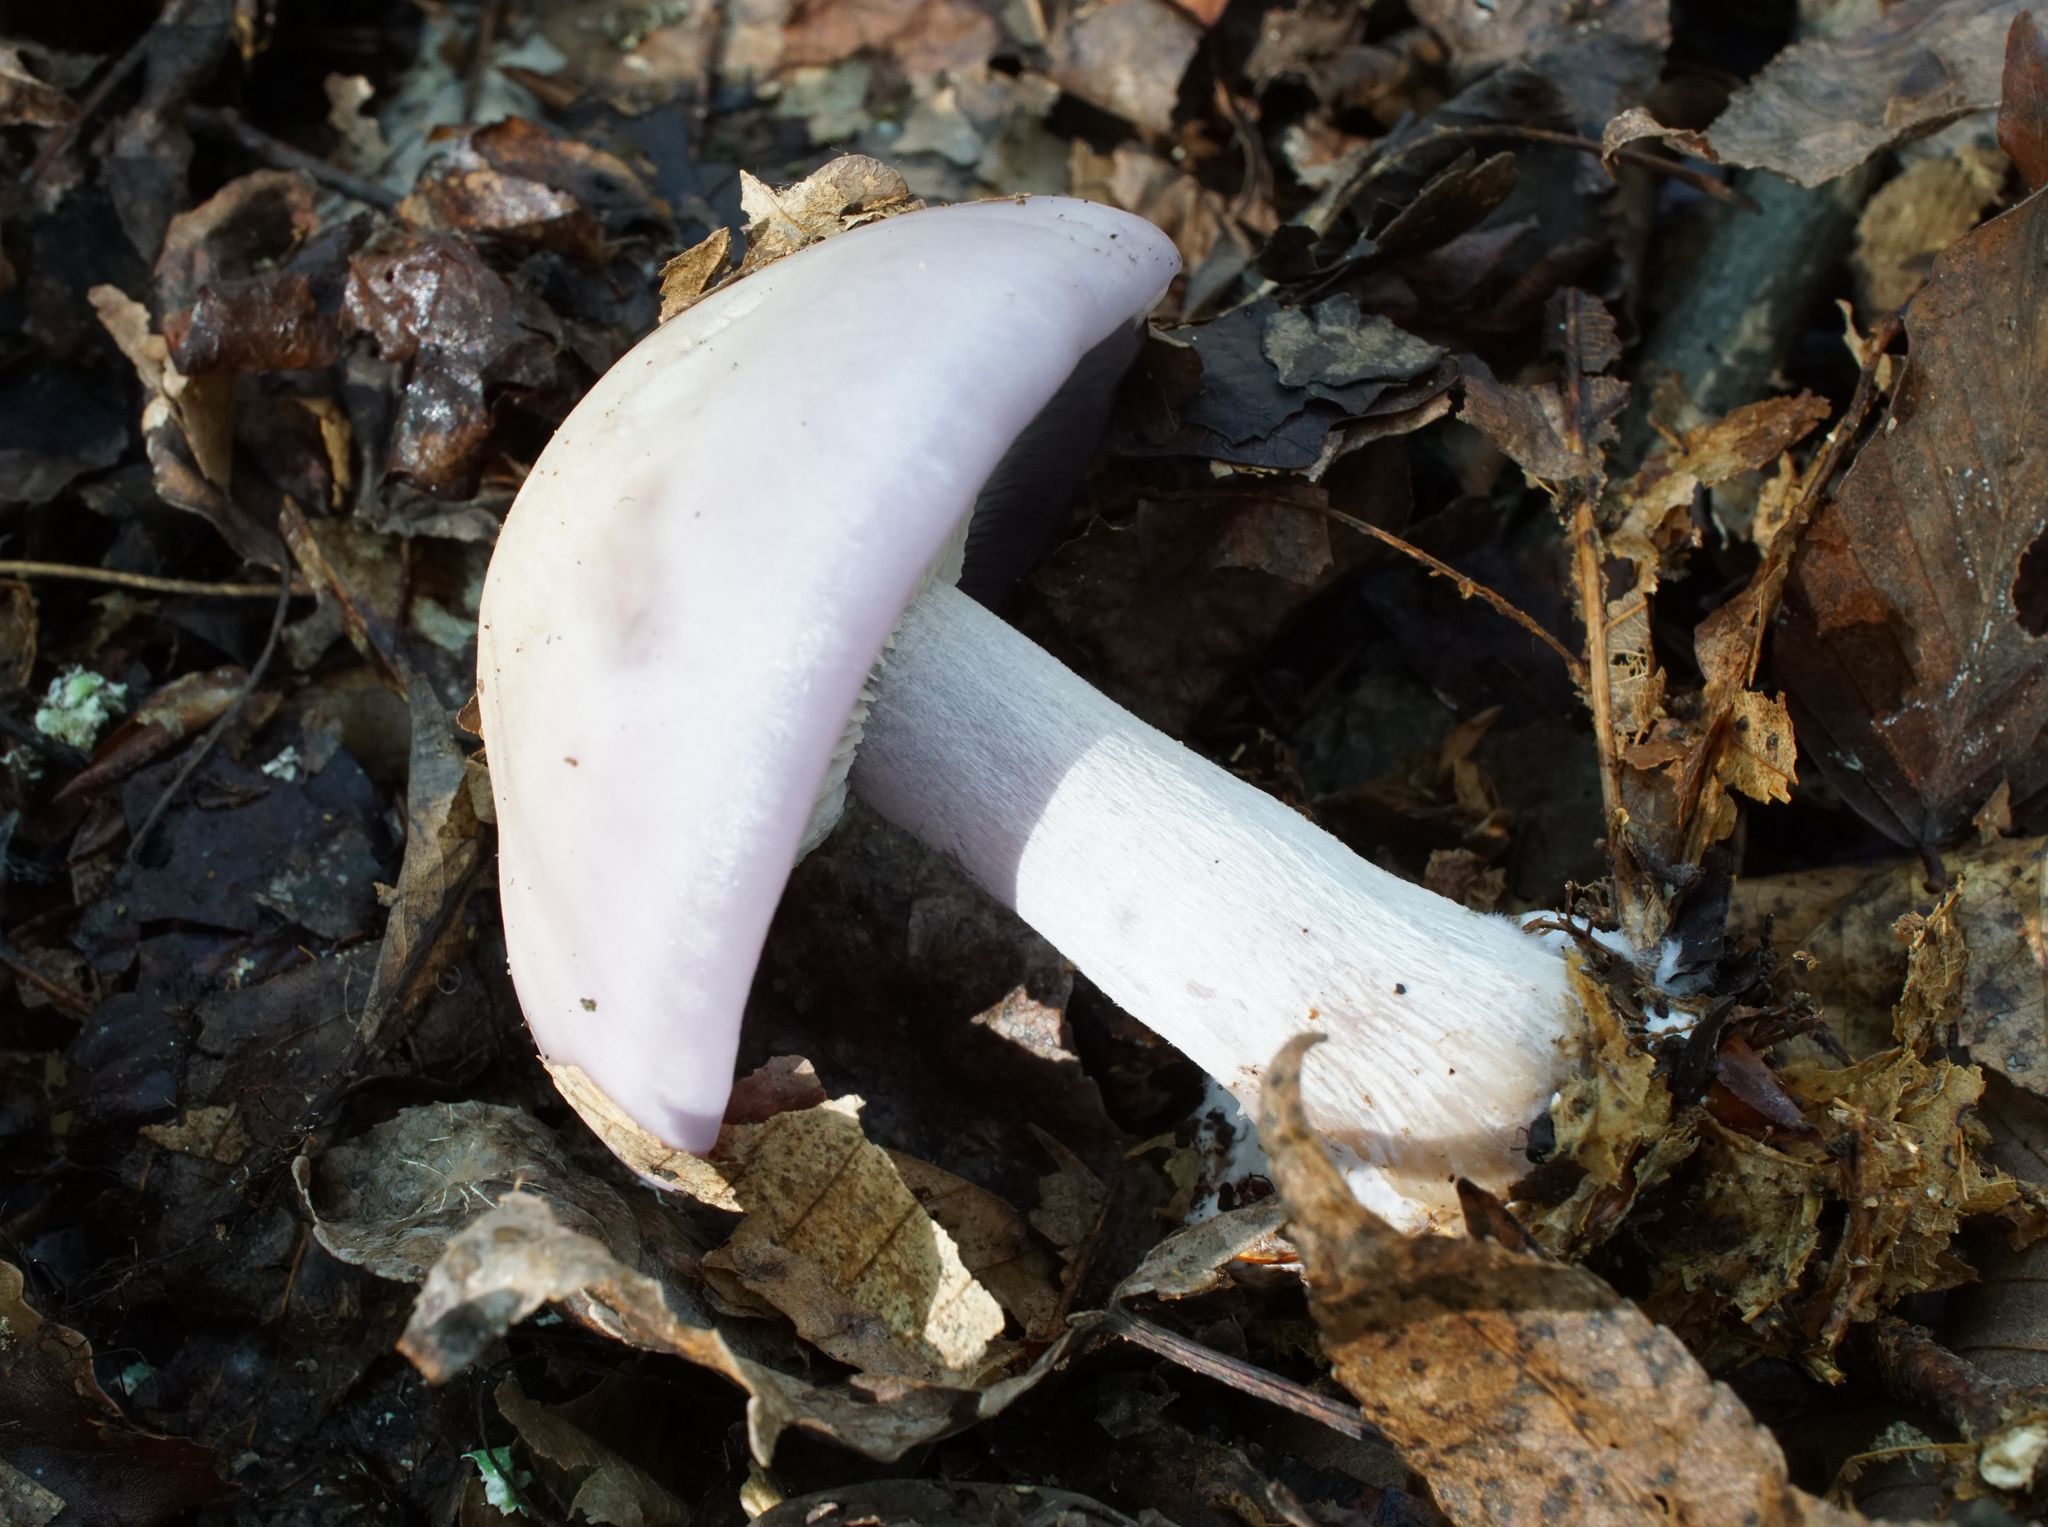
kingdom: Fungi
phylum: Basidiomycota
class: Agaricomycetes
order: Agaricales
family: Tricholomataceae
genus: Collybia
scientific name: Collybia
